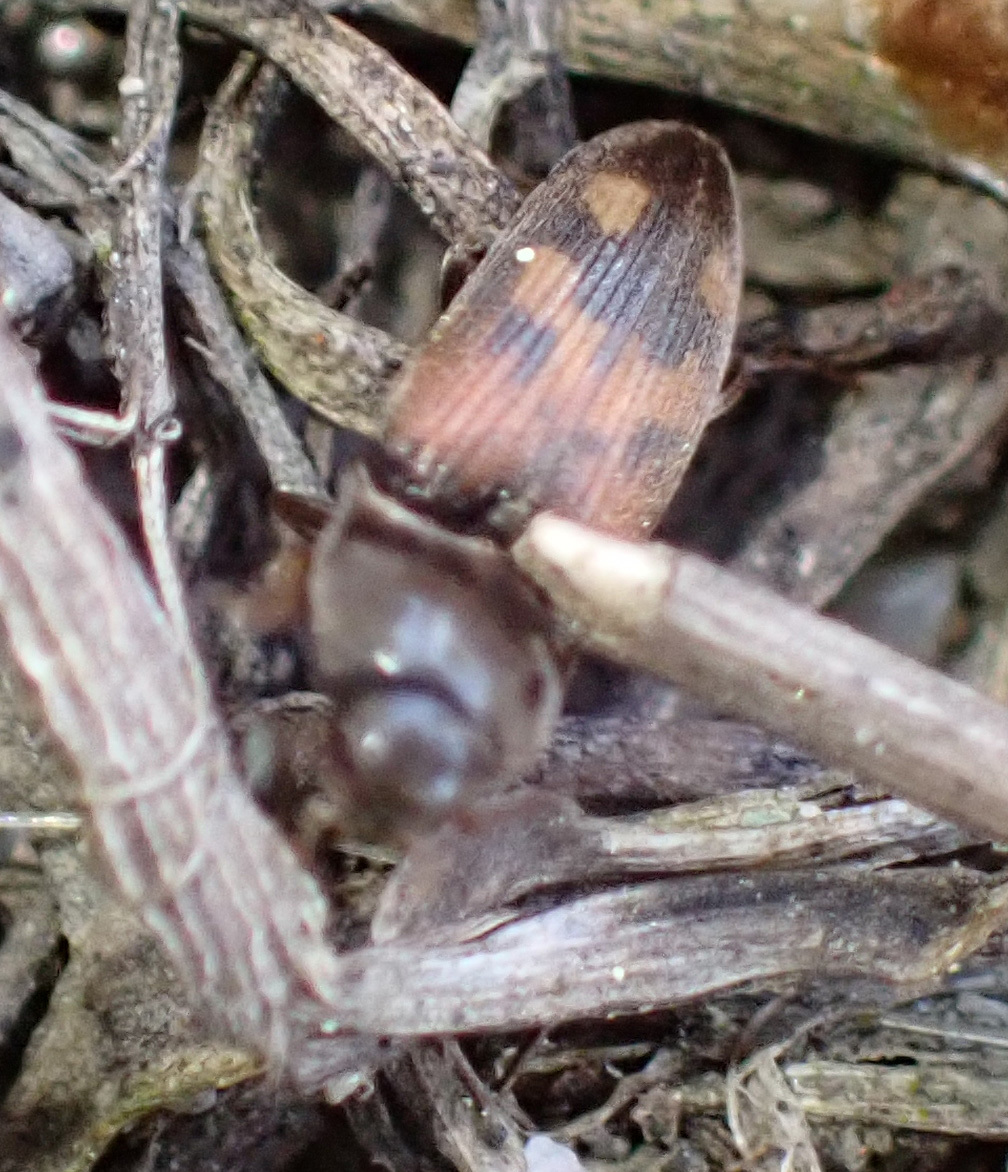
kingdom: Animalia
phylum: Arthropoda
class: Insecta
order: Coleoptera
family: Elateridae
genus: Drasterius
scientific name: Drasterius bimaculatus
